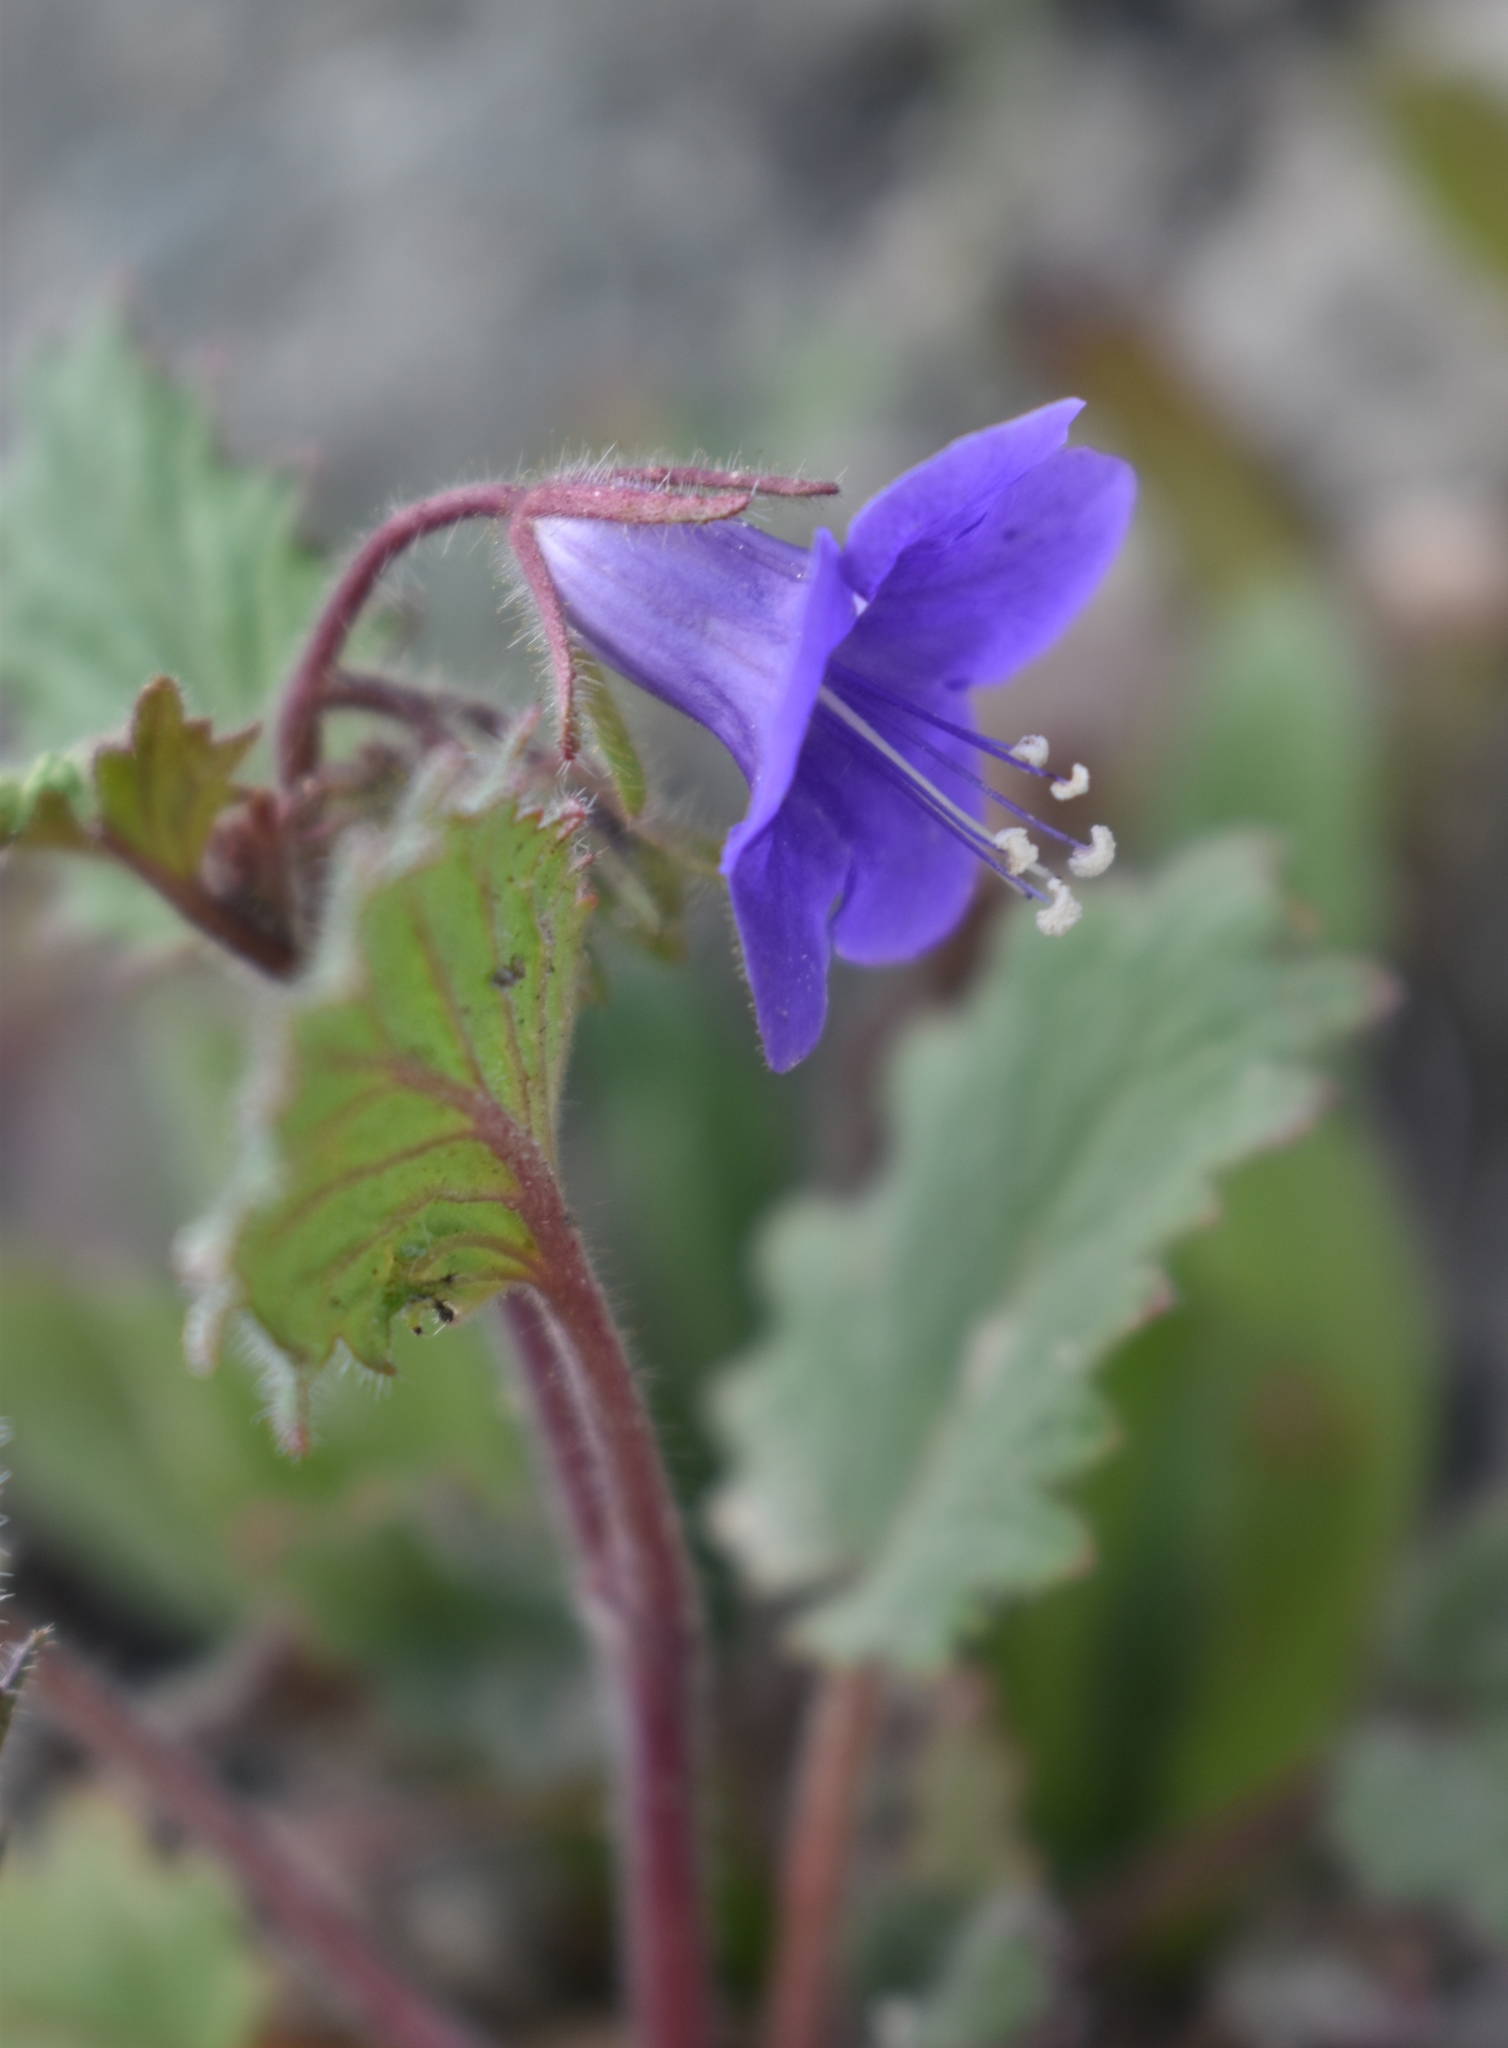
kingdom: Plantae
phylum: Tracheophyta
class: Magnoliopsida
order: Boraginales
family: Hydrophyllaceae
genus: Phacelia
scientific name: Phacelia minor
